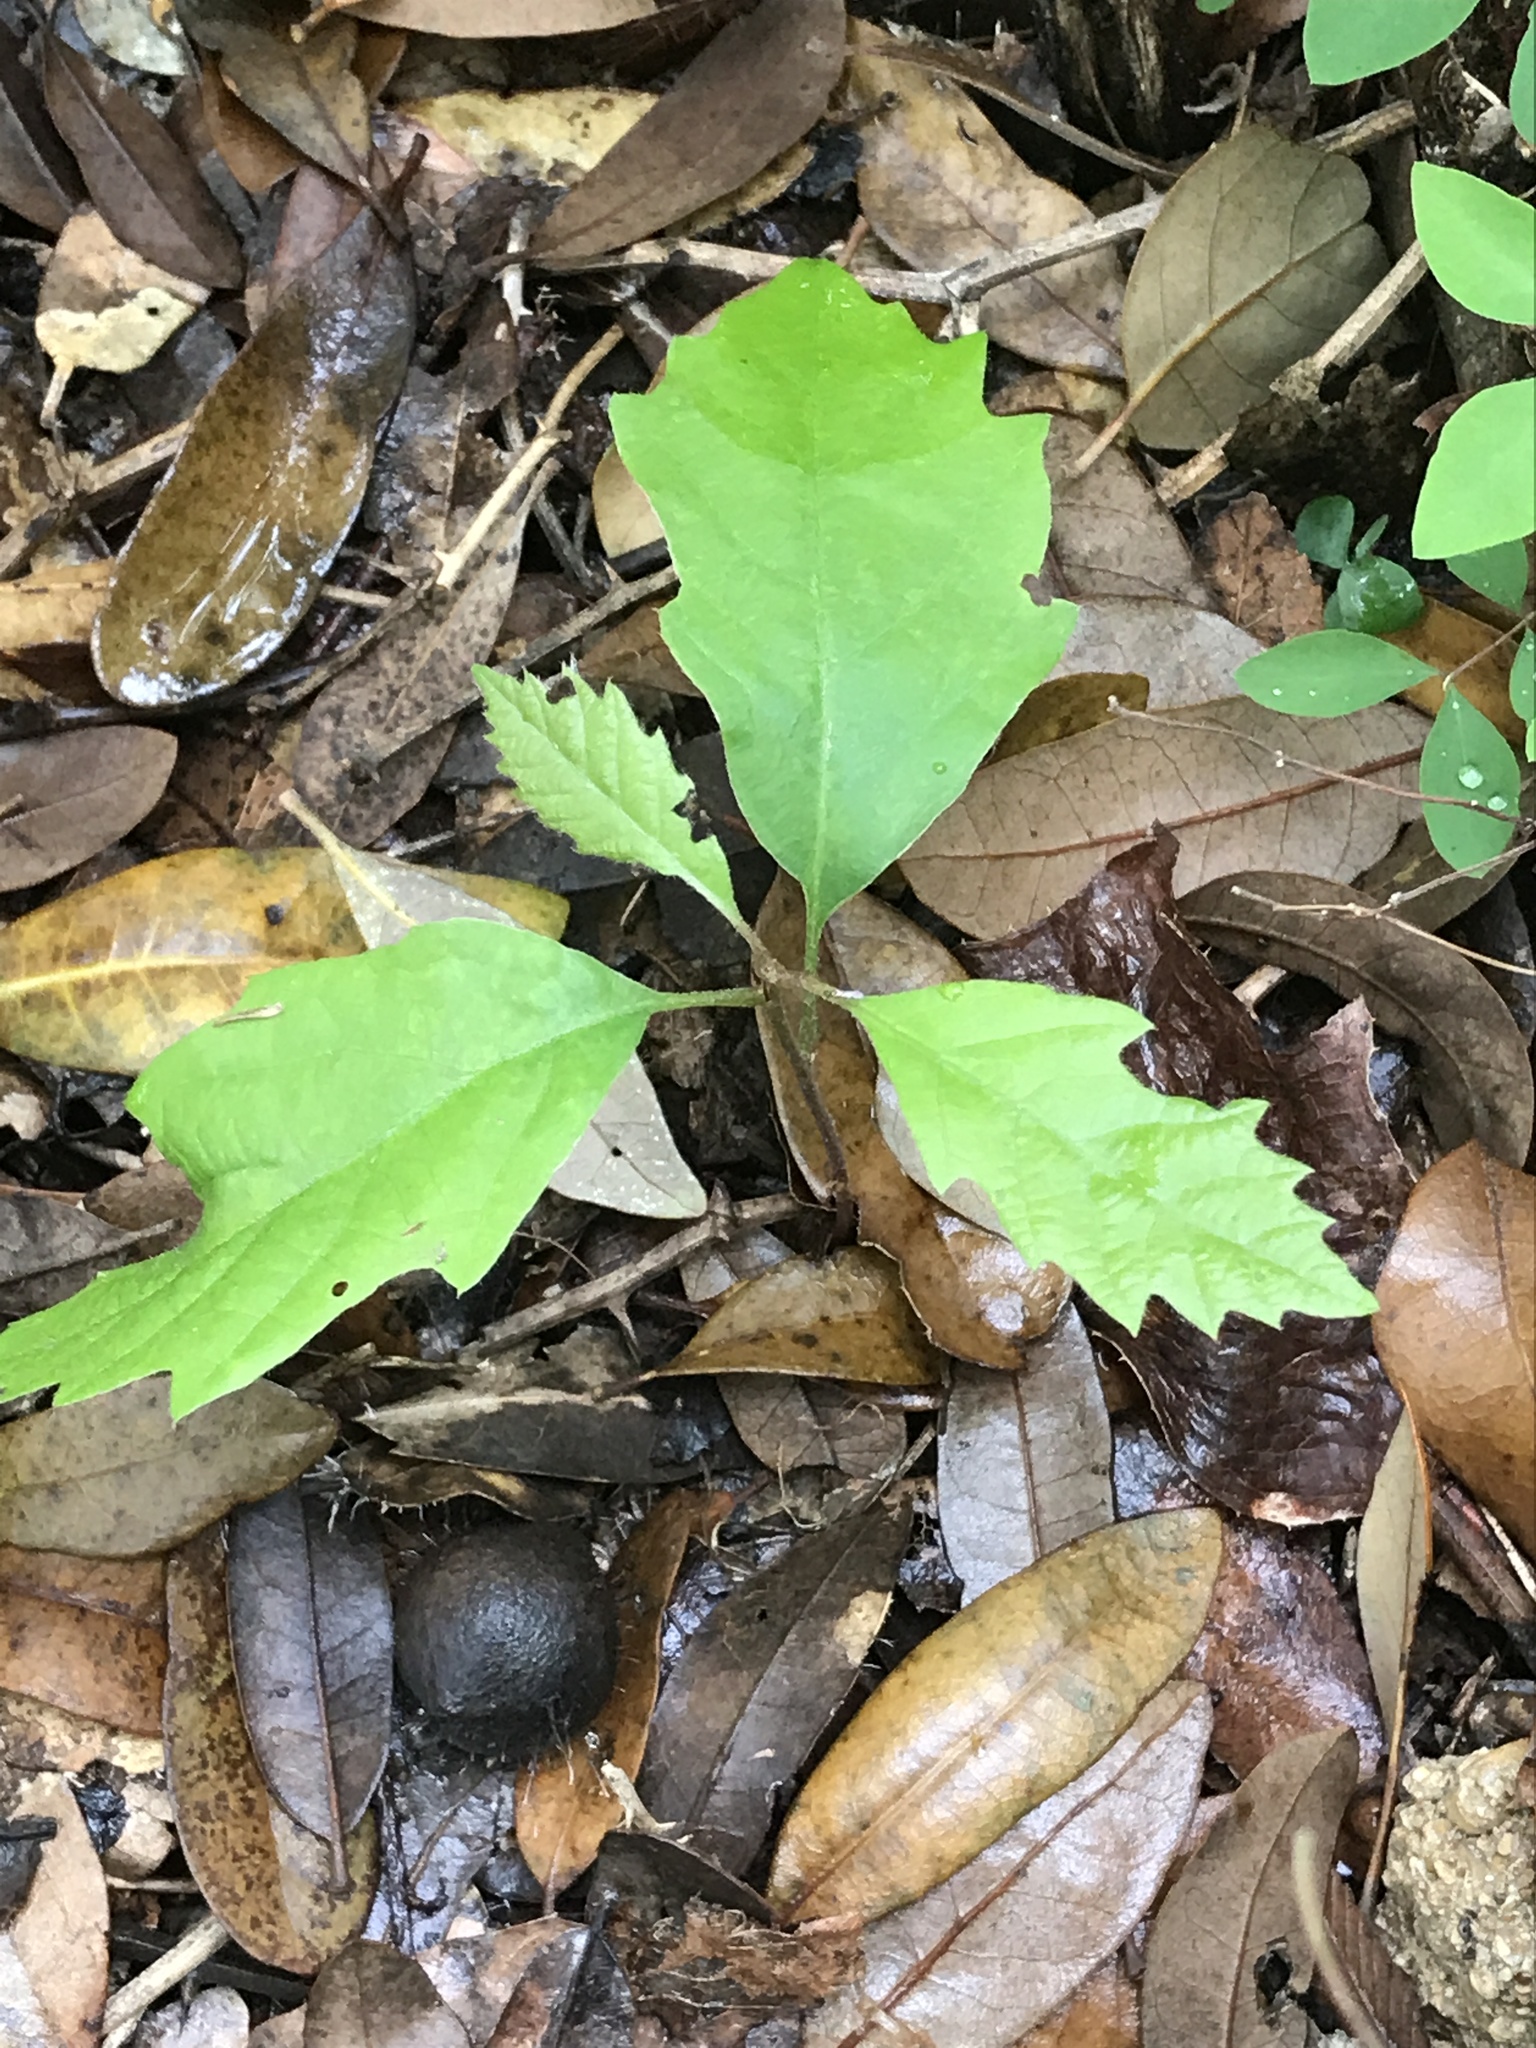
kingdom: Plantae
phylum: Tracheophyta
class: Magnoliopsida
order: Fagales
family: Fagaceae
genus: Quercus
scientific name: Quercus muehlenbergii
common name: Chinkapin oak
